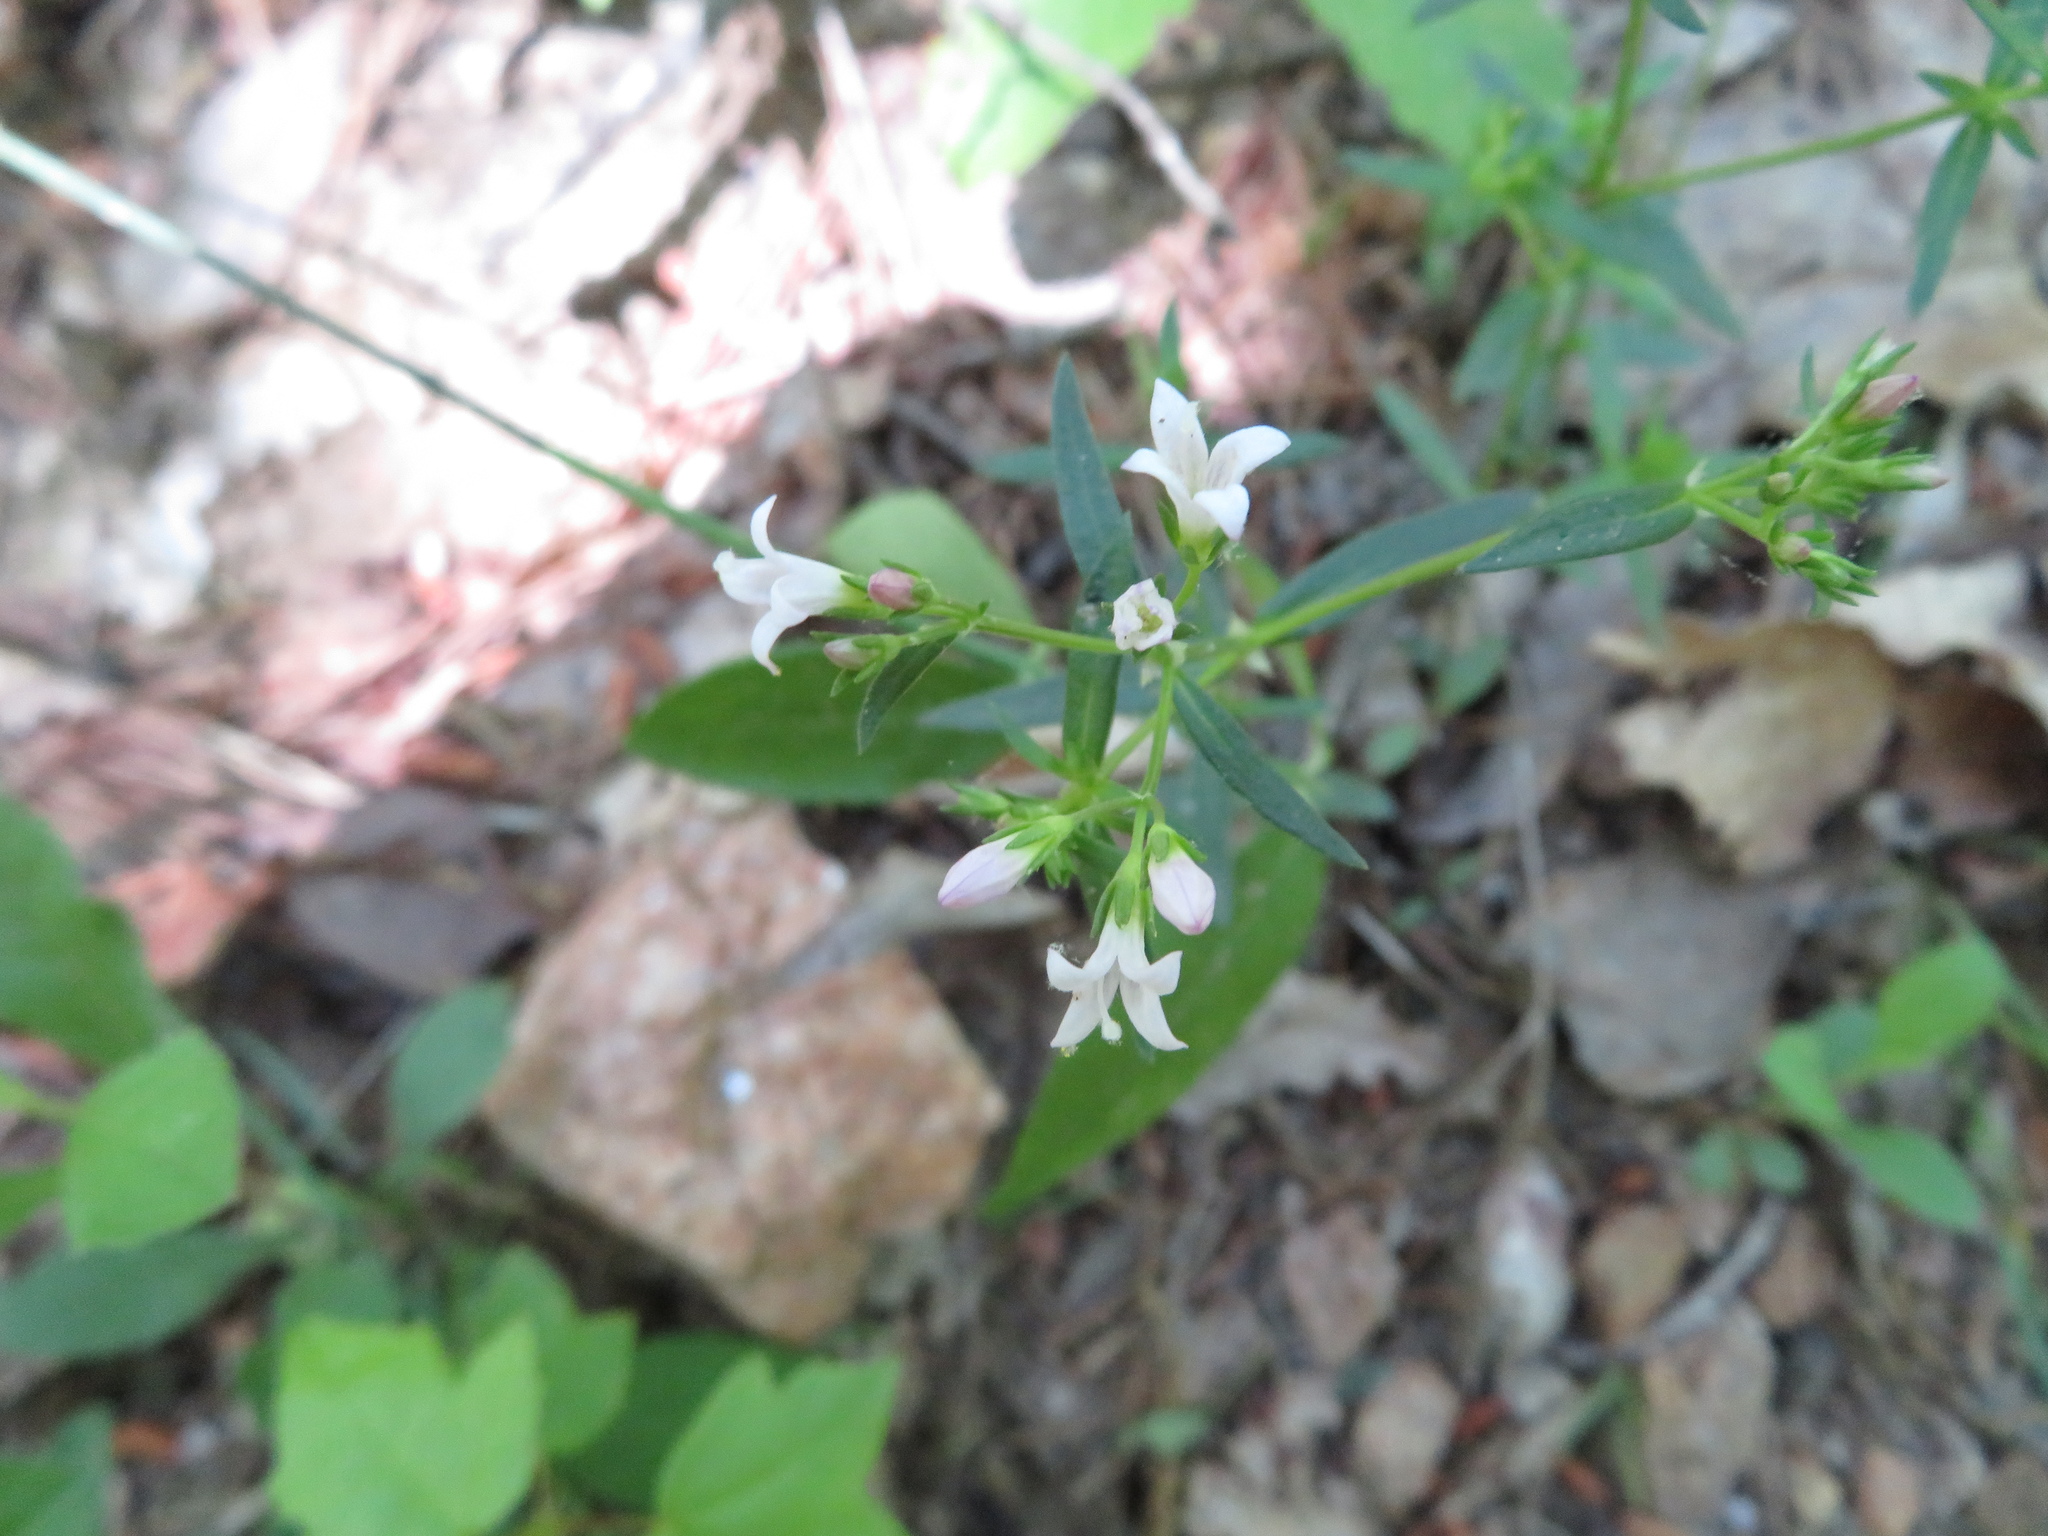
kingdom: Plantae
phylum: Tracheophyta
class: Magnoliopsida
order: Gentianales
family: Rubiaceae
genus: Houstonia
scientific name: Houstonia longifolia
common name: Long-leaved bluets
